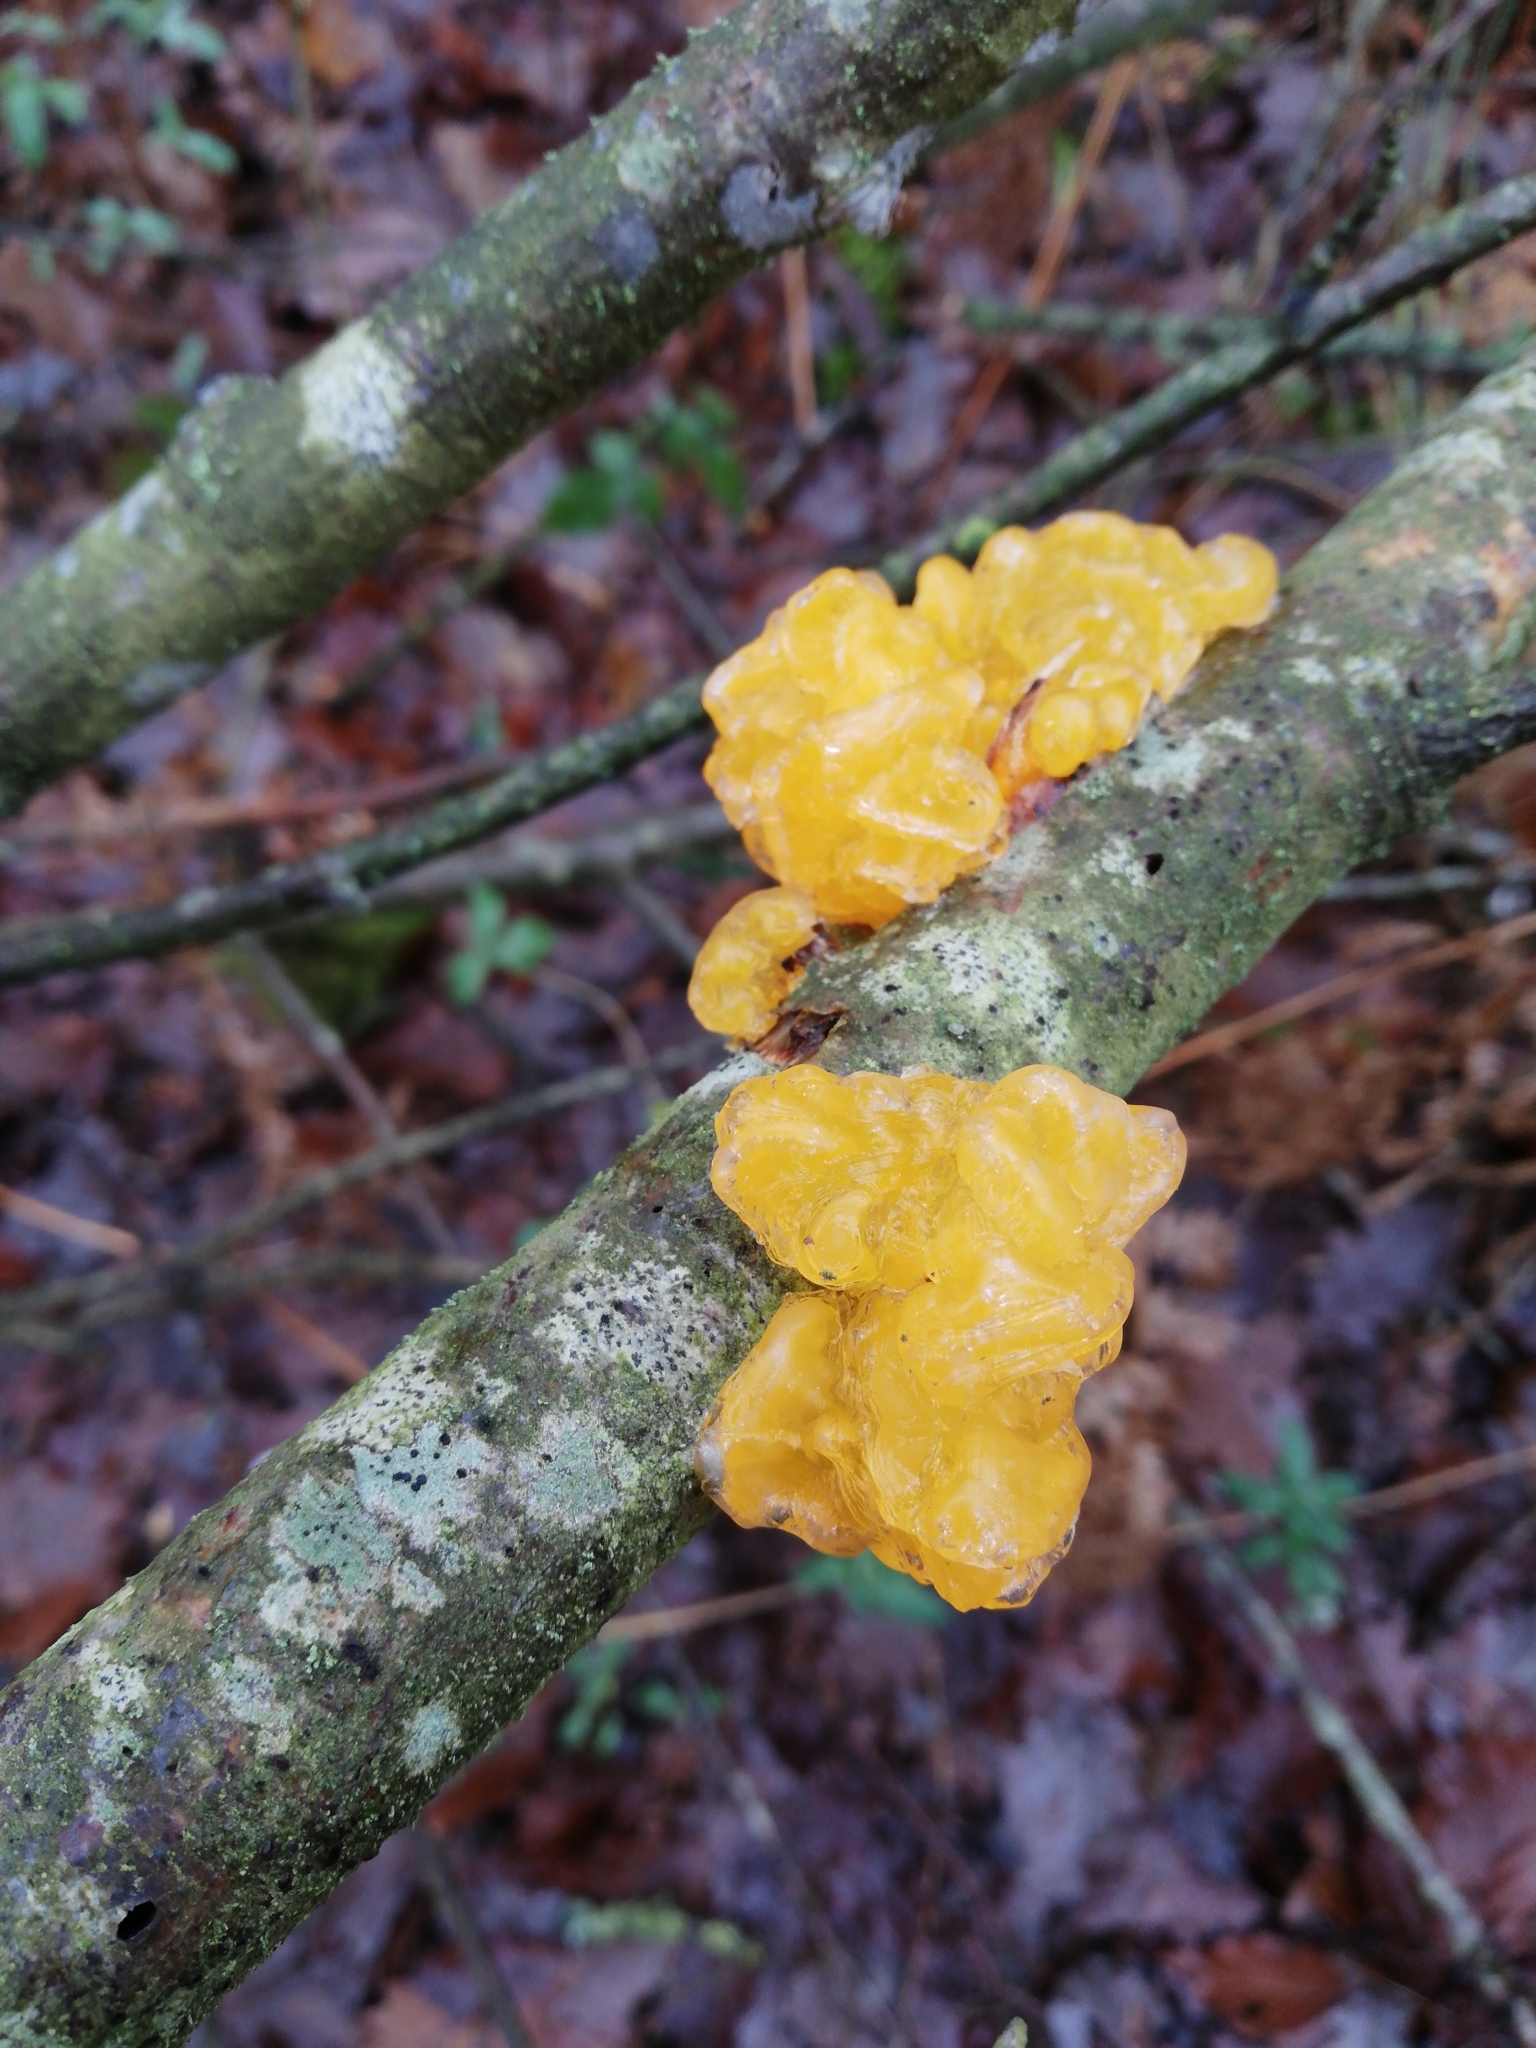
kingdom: Fungi
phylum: Basidiomycota
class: Tremellomycetes
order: Tremellales
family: Tremellaceae
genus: Tremella
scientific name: Tremella mesenterica
